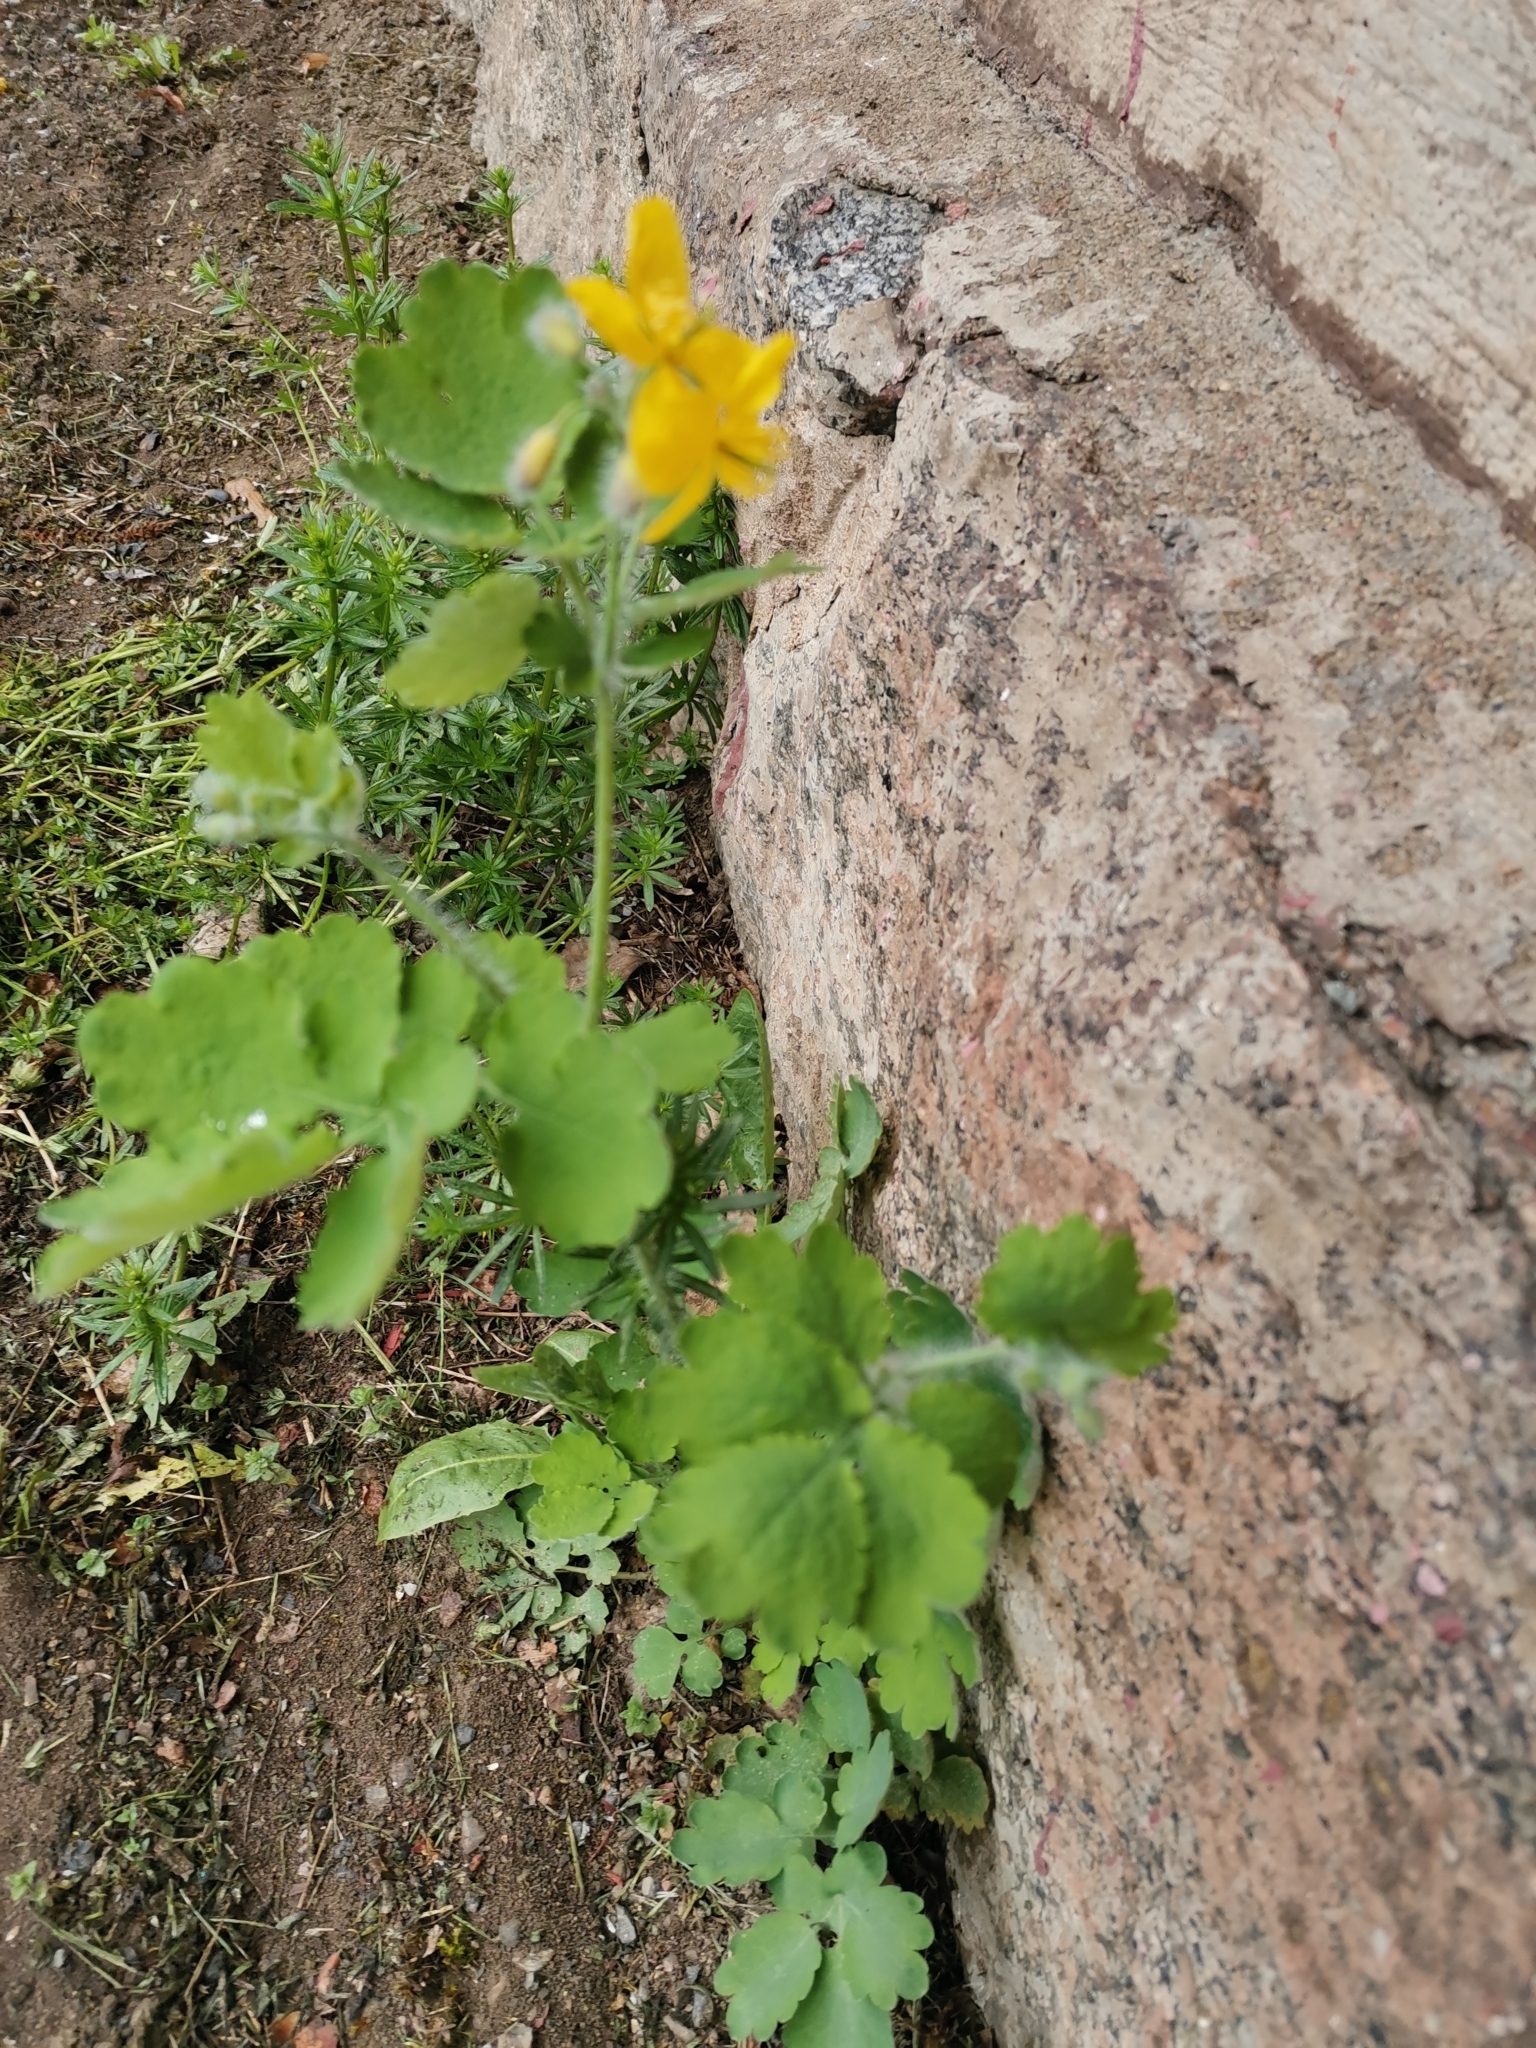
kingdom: Plantae
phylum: Tracheophyta
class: Magnoliopsida
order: Ranunculales
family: Papaveraceae
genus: Chelidonium
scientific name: Chelidonium majus
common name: Greater celandine
